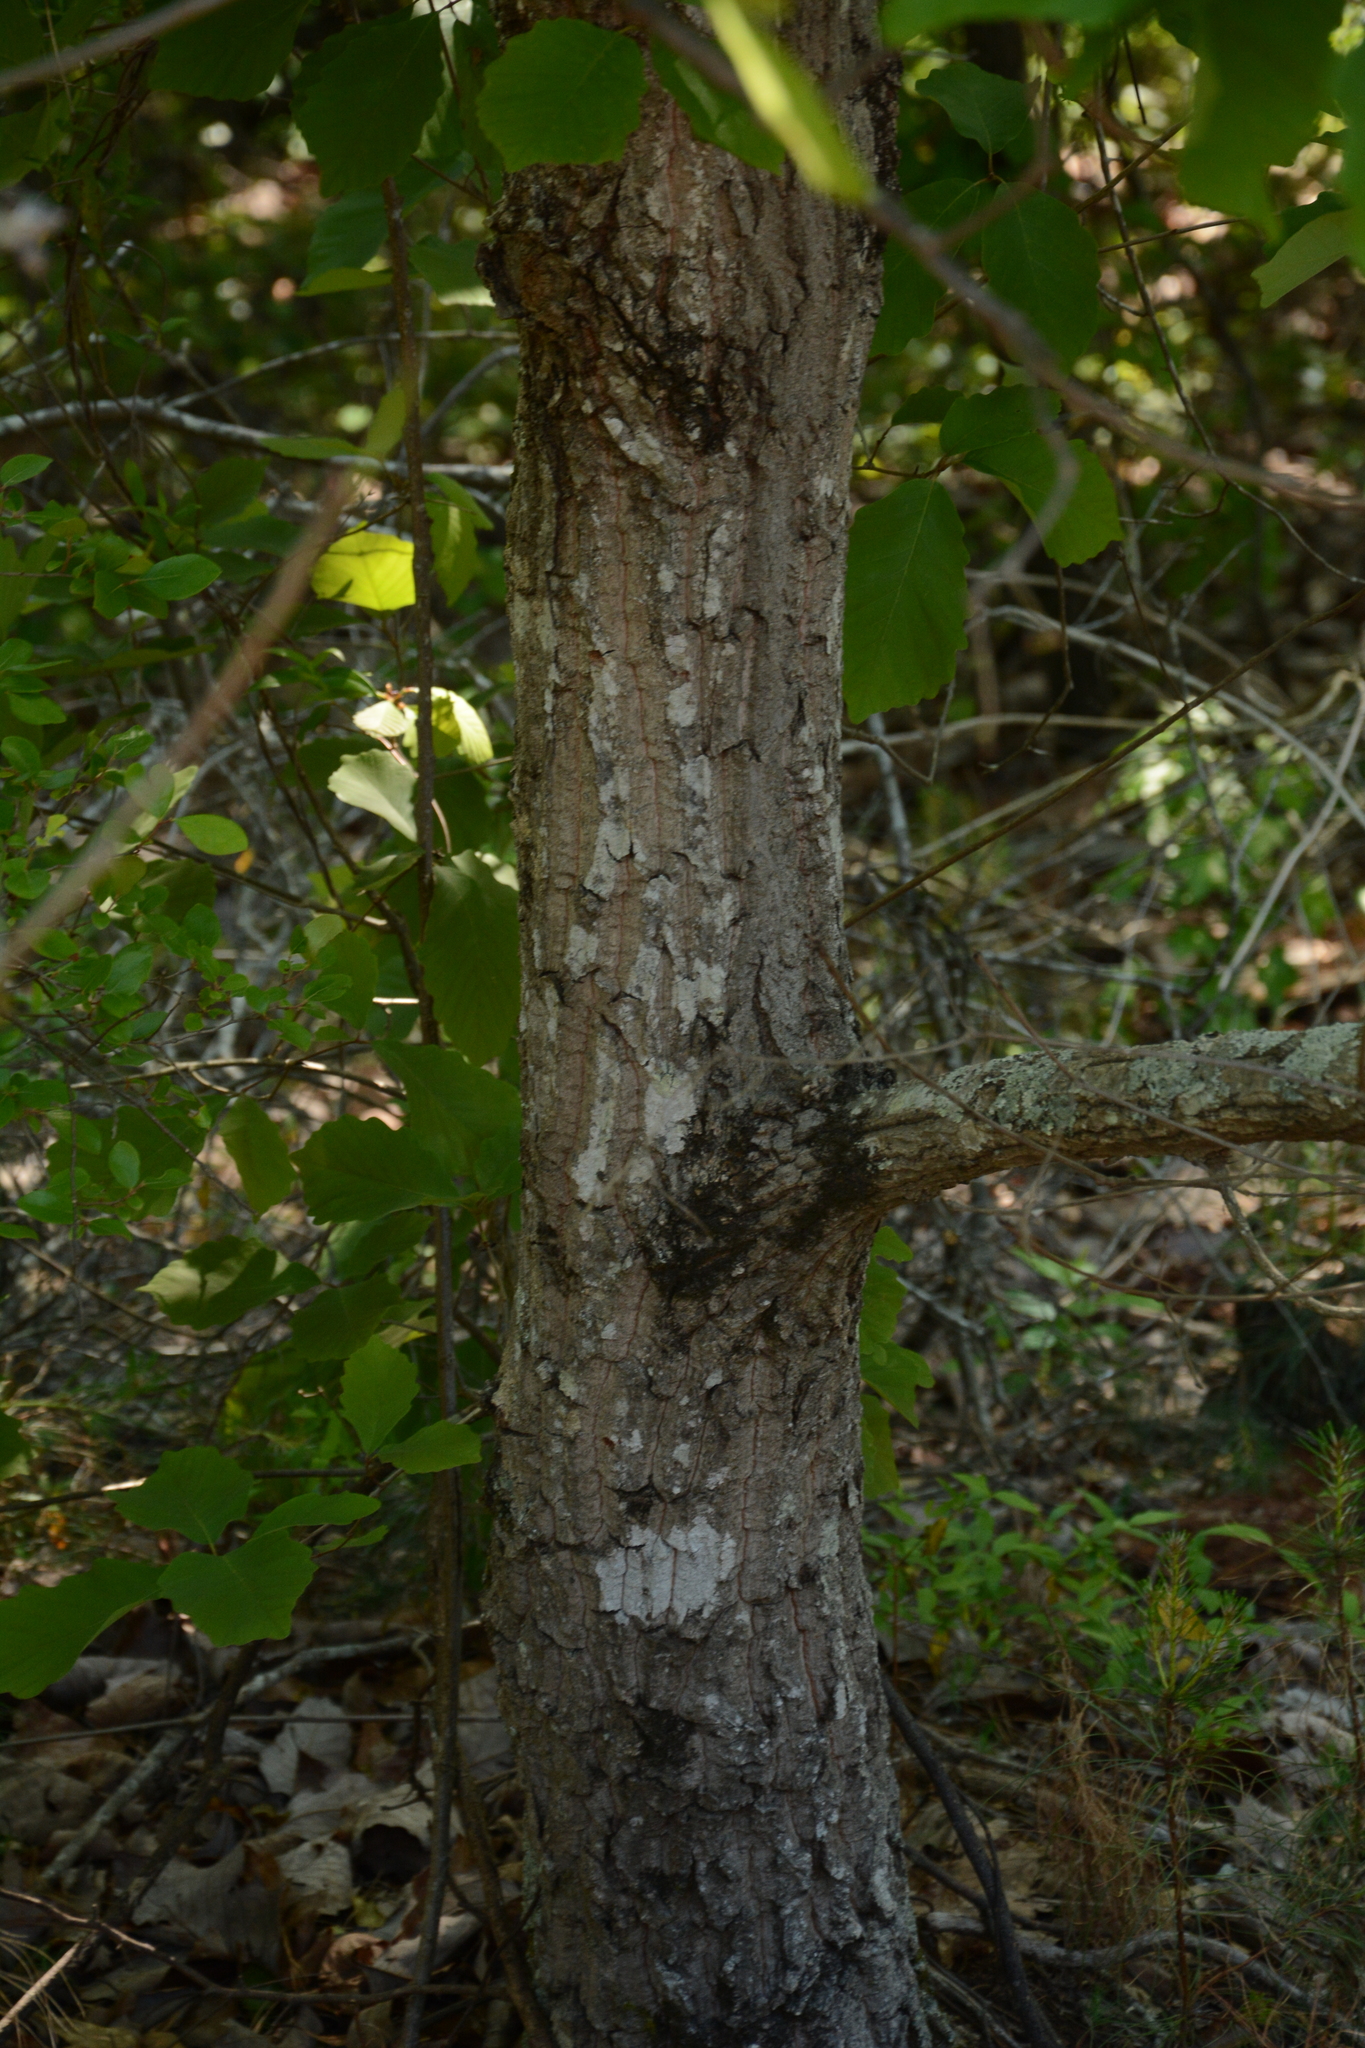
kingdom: Plantae
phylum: Tracheophyta
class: Magnoliopsida
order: Fagales
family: Fagaceae
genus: Quercus
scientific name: Quercus montana
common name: Chestnut oak
